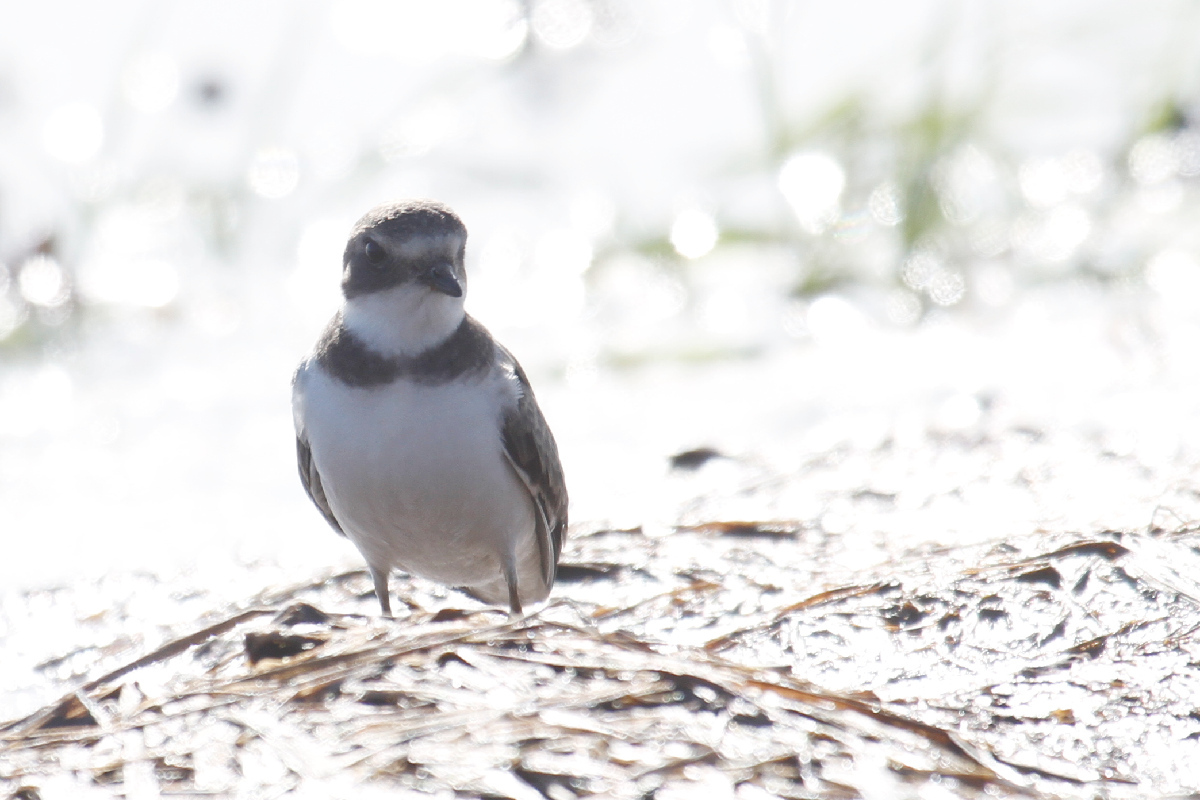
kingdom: Animalia
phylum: Chordata
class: Aves
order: Charadriiformes
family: Charadriidae
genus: Charadrius
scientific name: Charadrius semipalmatus
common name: Semipalmated plover
